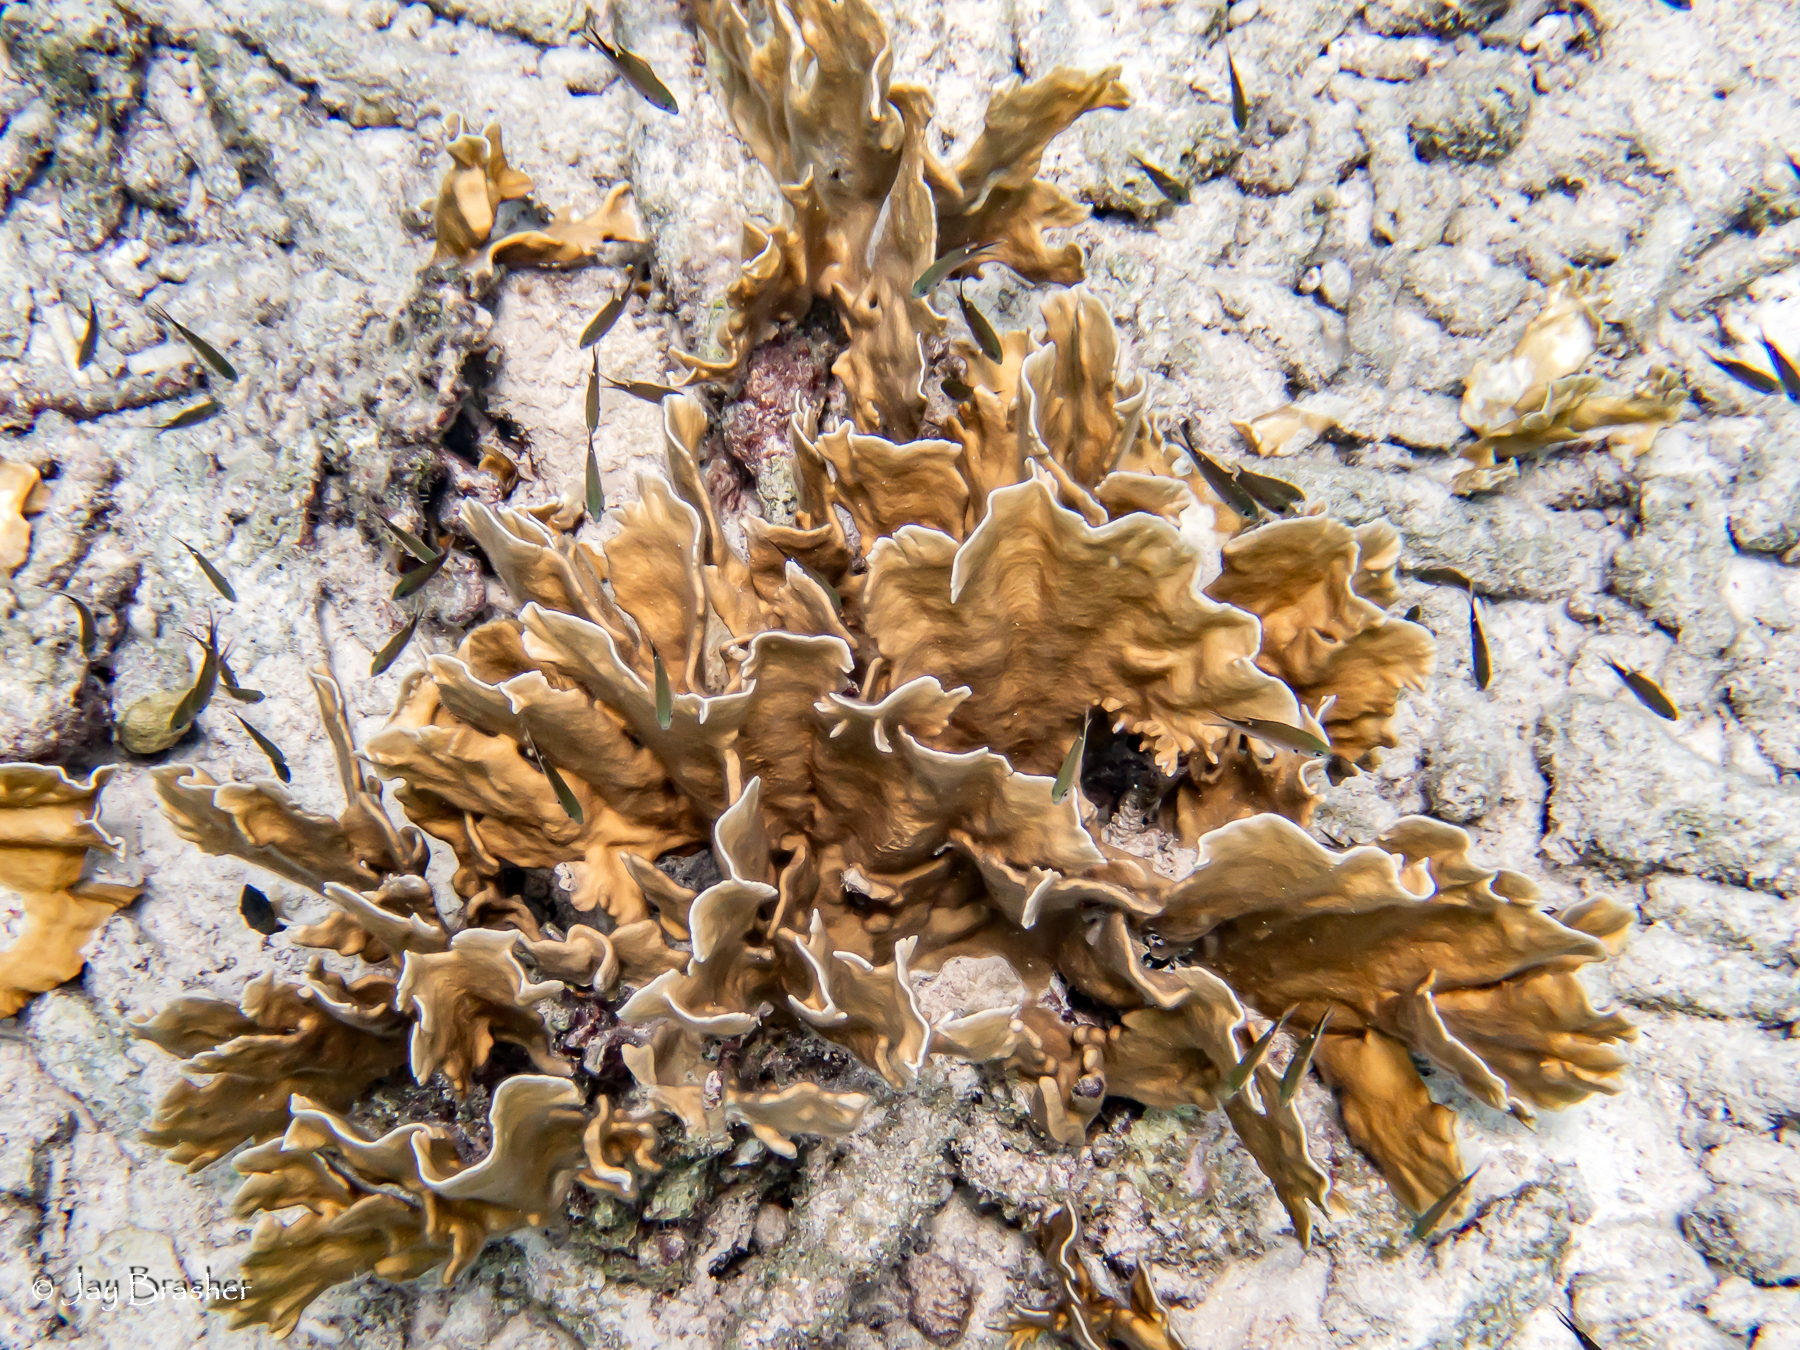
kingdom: Animalia
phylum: Cnidaria
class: Hydrozoa
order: Anthoathecata
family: Milleporidae
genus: Millepora
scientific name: Millepora complanata
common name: Bladed fire coral
